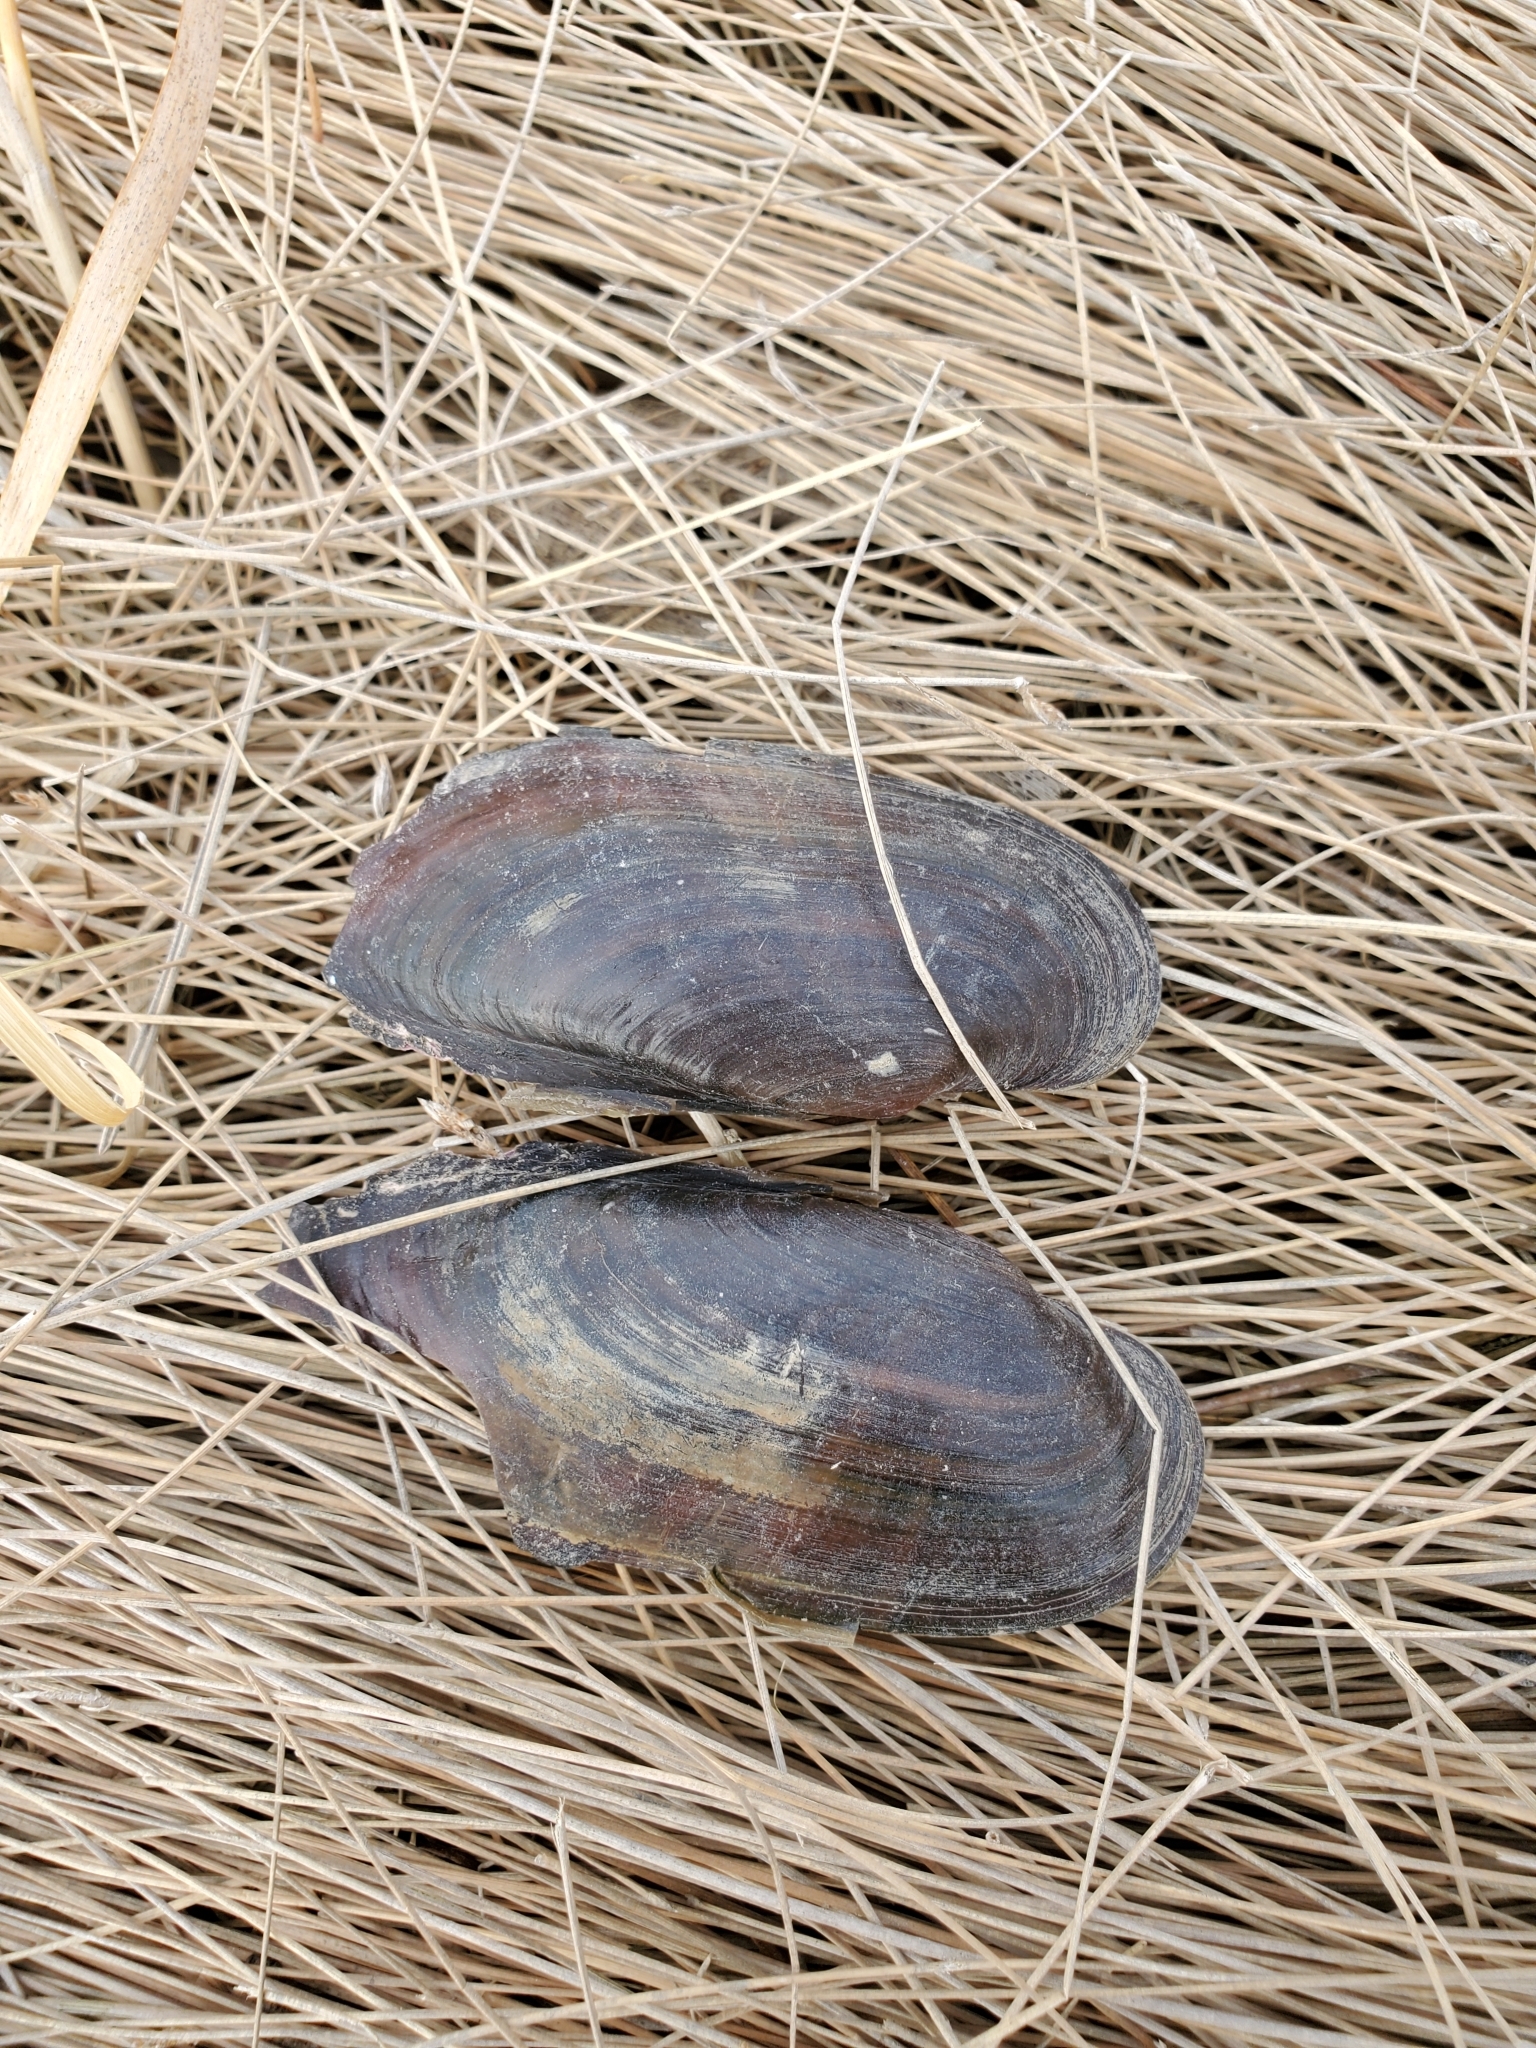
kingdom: Animalia
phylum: Mollusca
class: Bivalvia
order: Unionida
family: Unionidae
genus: Ligumia
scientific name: Ligumia recta
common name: Black sandshell
